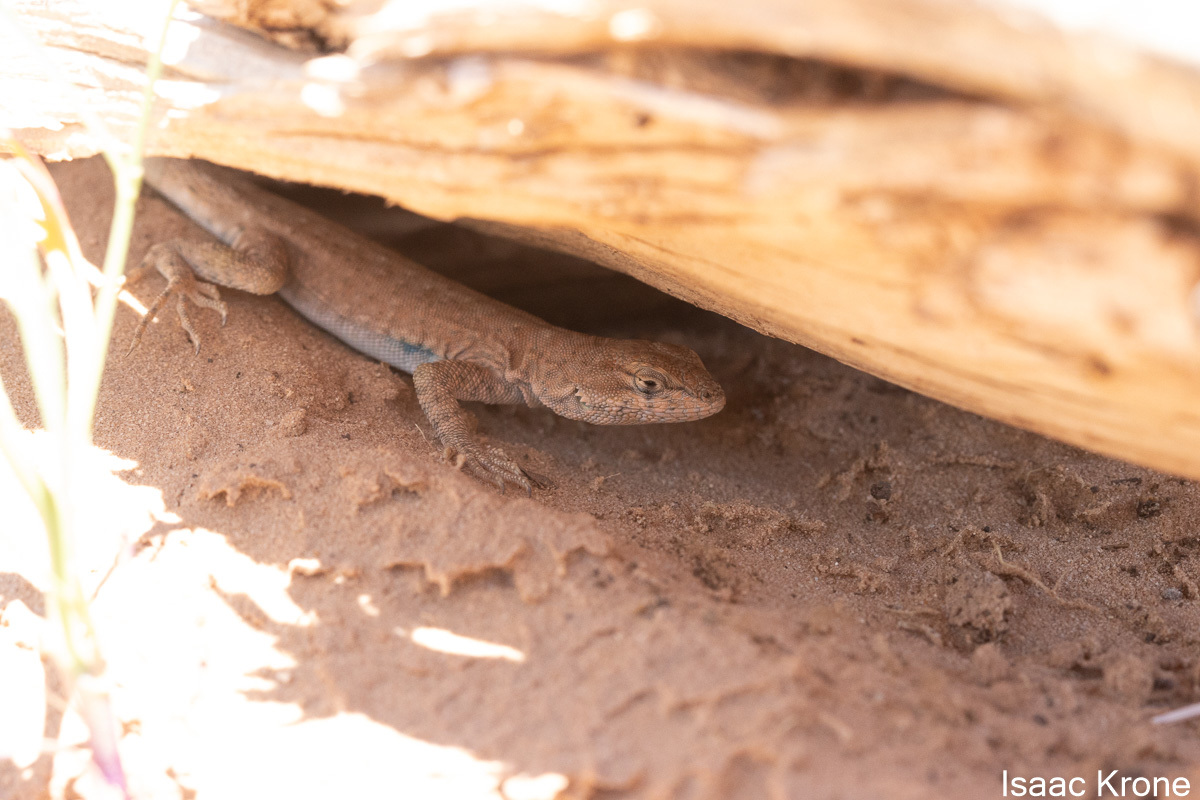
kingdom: Animalia
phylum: Chordata
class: Squamata
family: Phrynosomatidae
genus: Uta
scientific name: Uta stansburiana
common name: Side-blotched lizard
